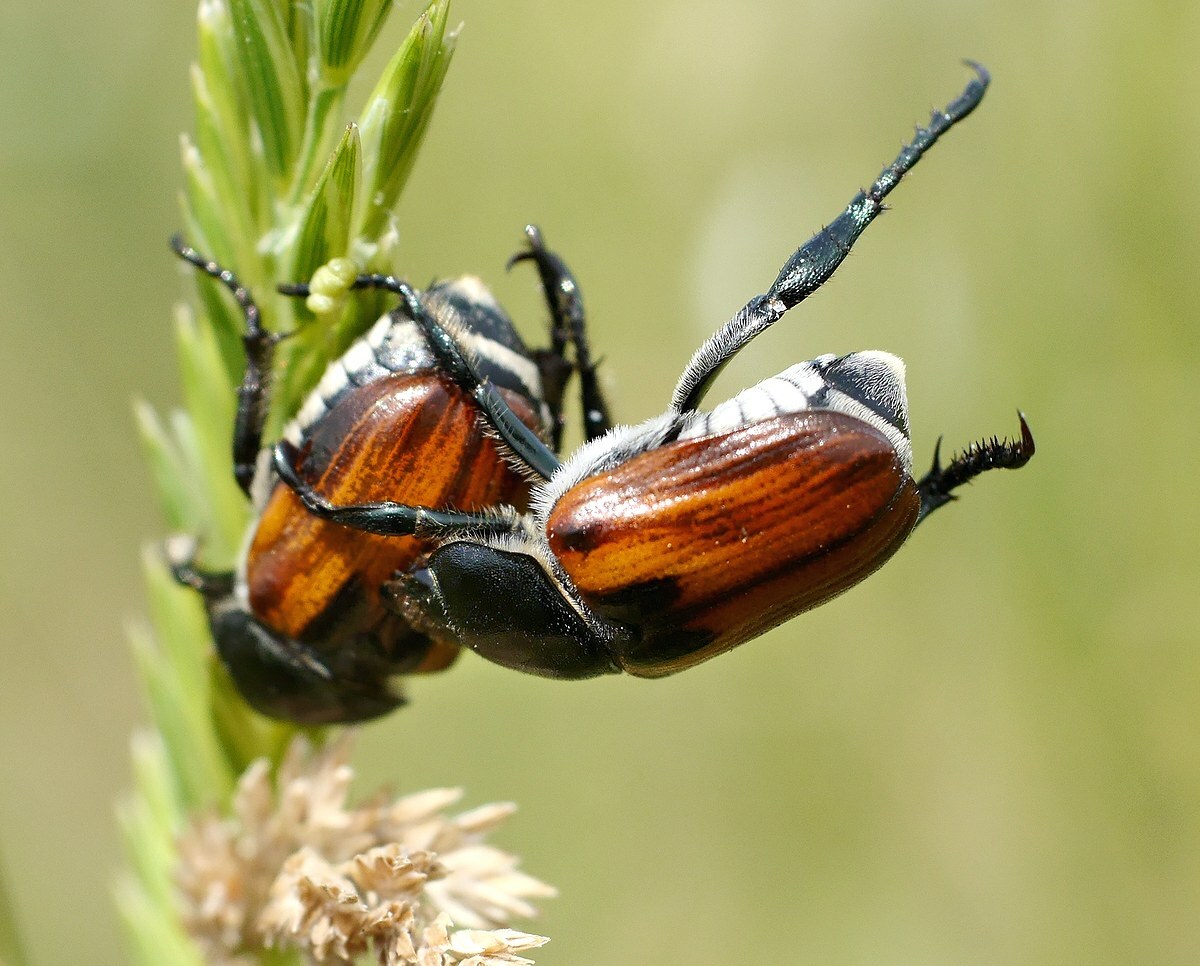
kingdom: Animalia
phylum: Arthropoda
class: Insecta
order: Coleoptera
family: Scarabaeidae
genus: Anisoplia
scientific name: Anisoplia austriaca
